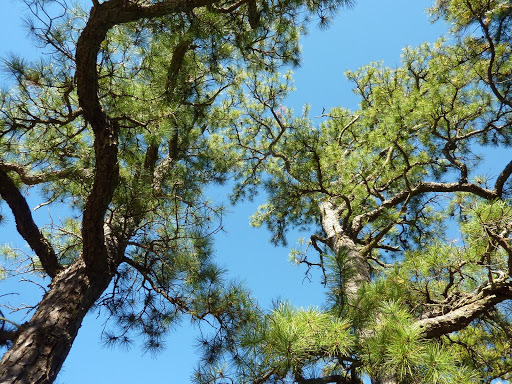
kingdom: Plantae
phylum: Tracheophyta
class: Pinopsida
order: Pinales
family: Pinaceae
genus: Pinus
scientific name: Pinus rigida
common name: Pitch pine
